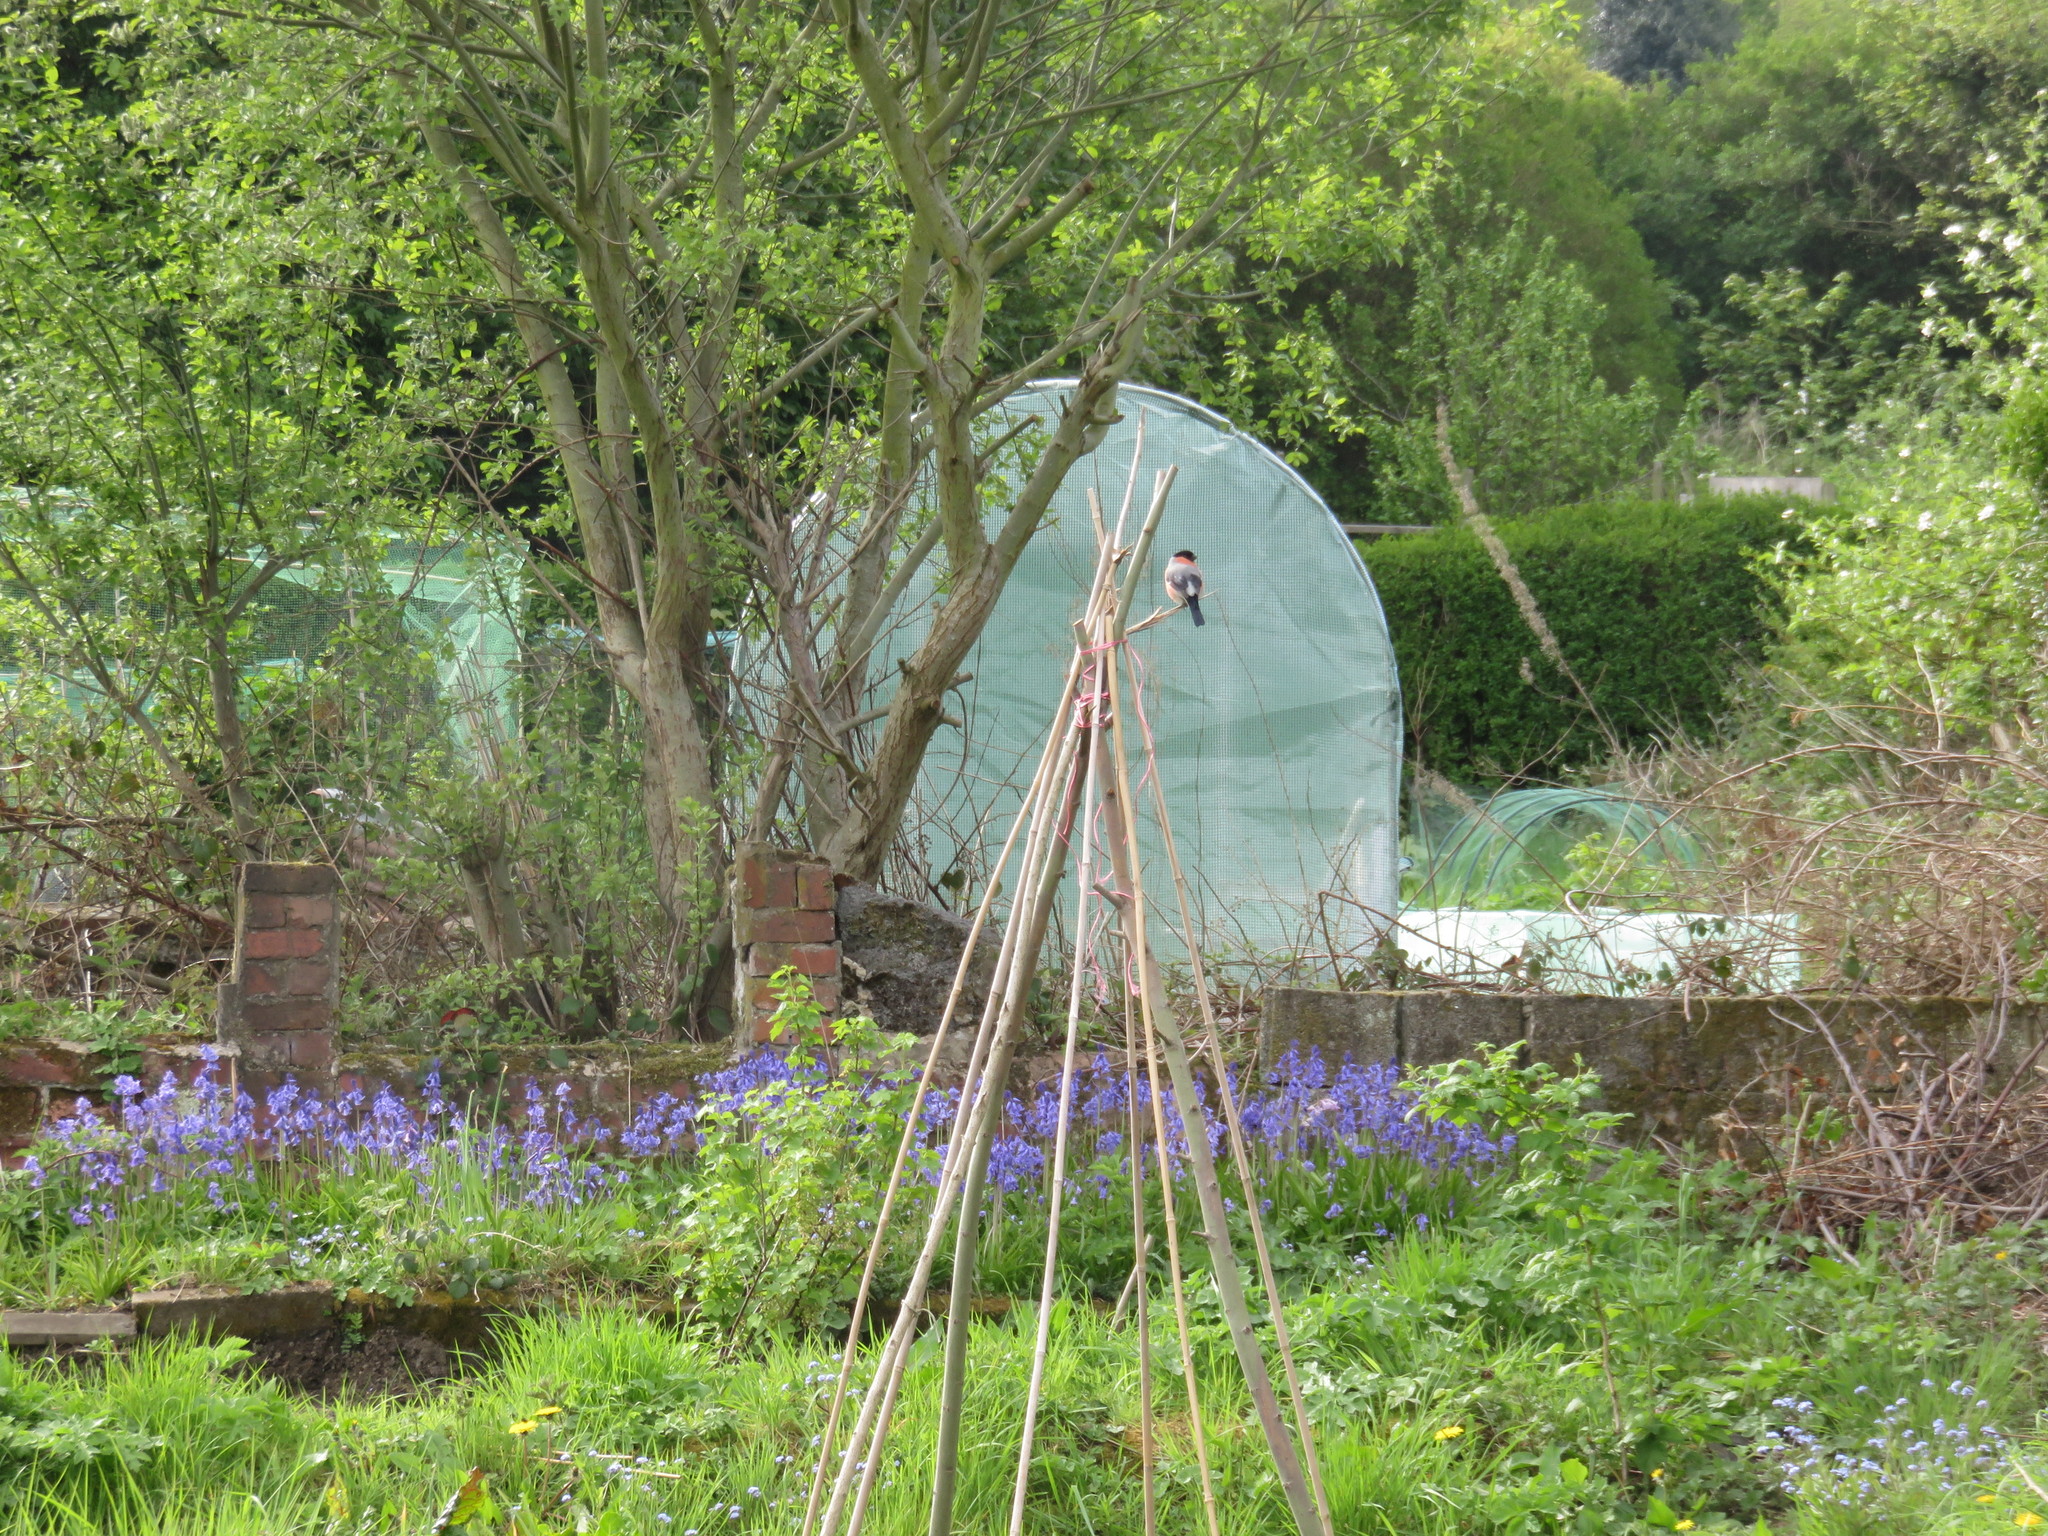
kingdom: Animalia
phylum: Chordata
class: Aves
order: Passeriformes
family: Fringillidae
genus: Pyrrhula
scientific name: Pyrrhula pyrrhula
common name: Eurasian bullfinch
